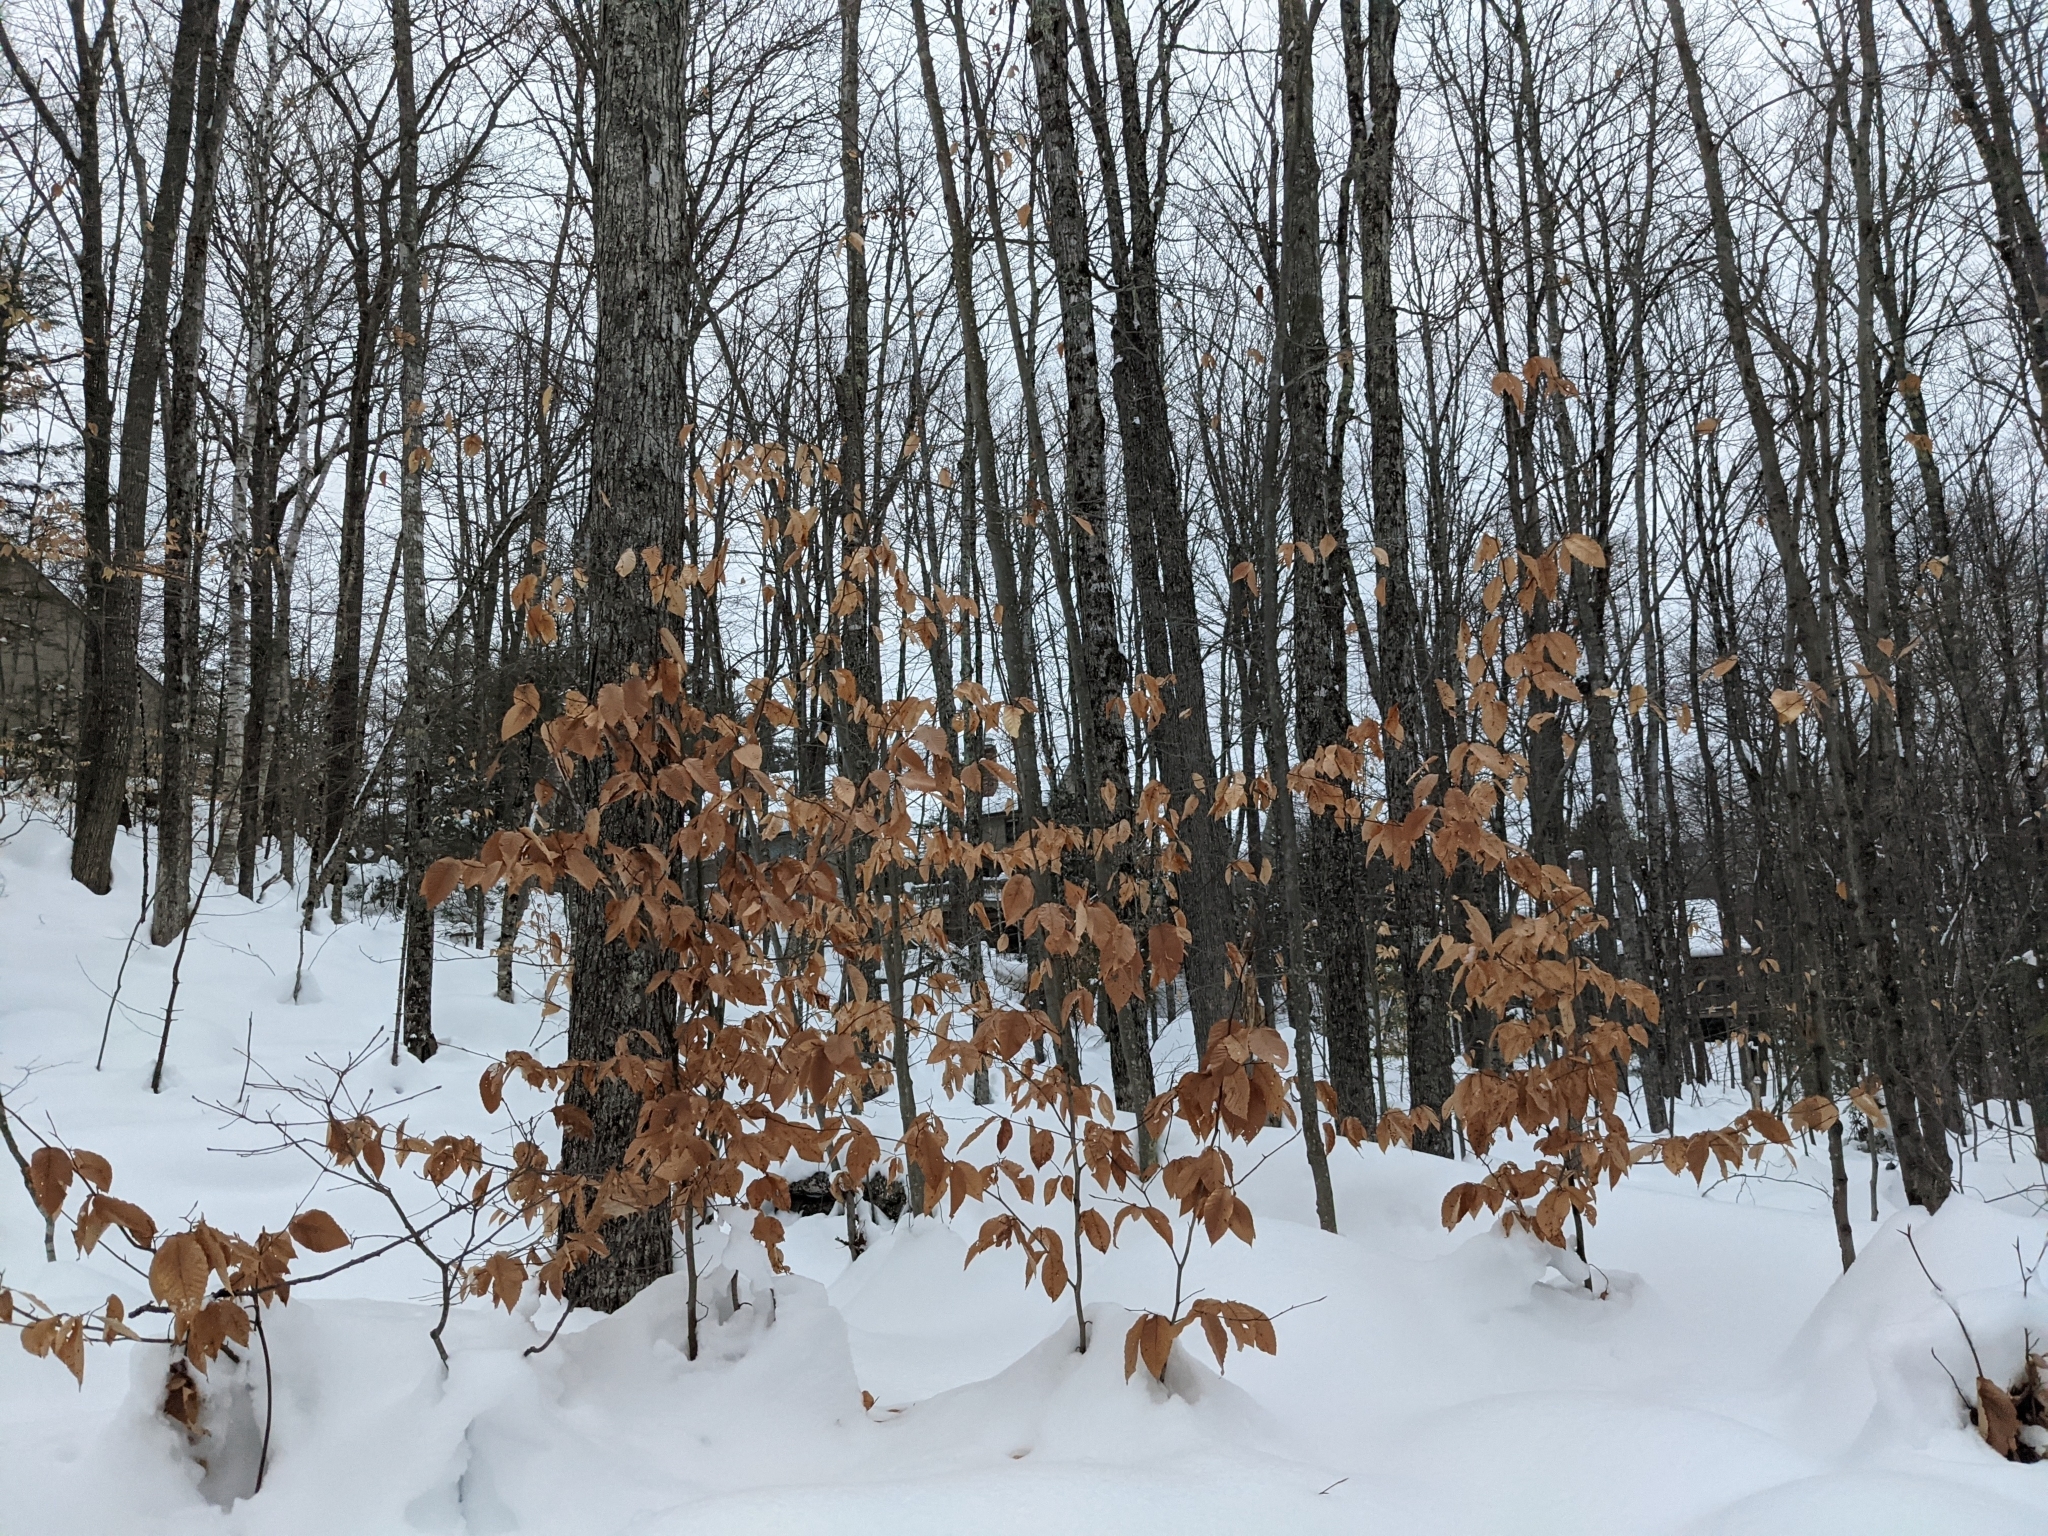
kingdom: Plantae
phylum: Tracheophyta
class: Magnoliopsida
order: Fagales
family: Fagaceae
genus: Fagus
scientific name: Fagus grandifolia
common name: American beech
